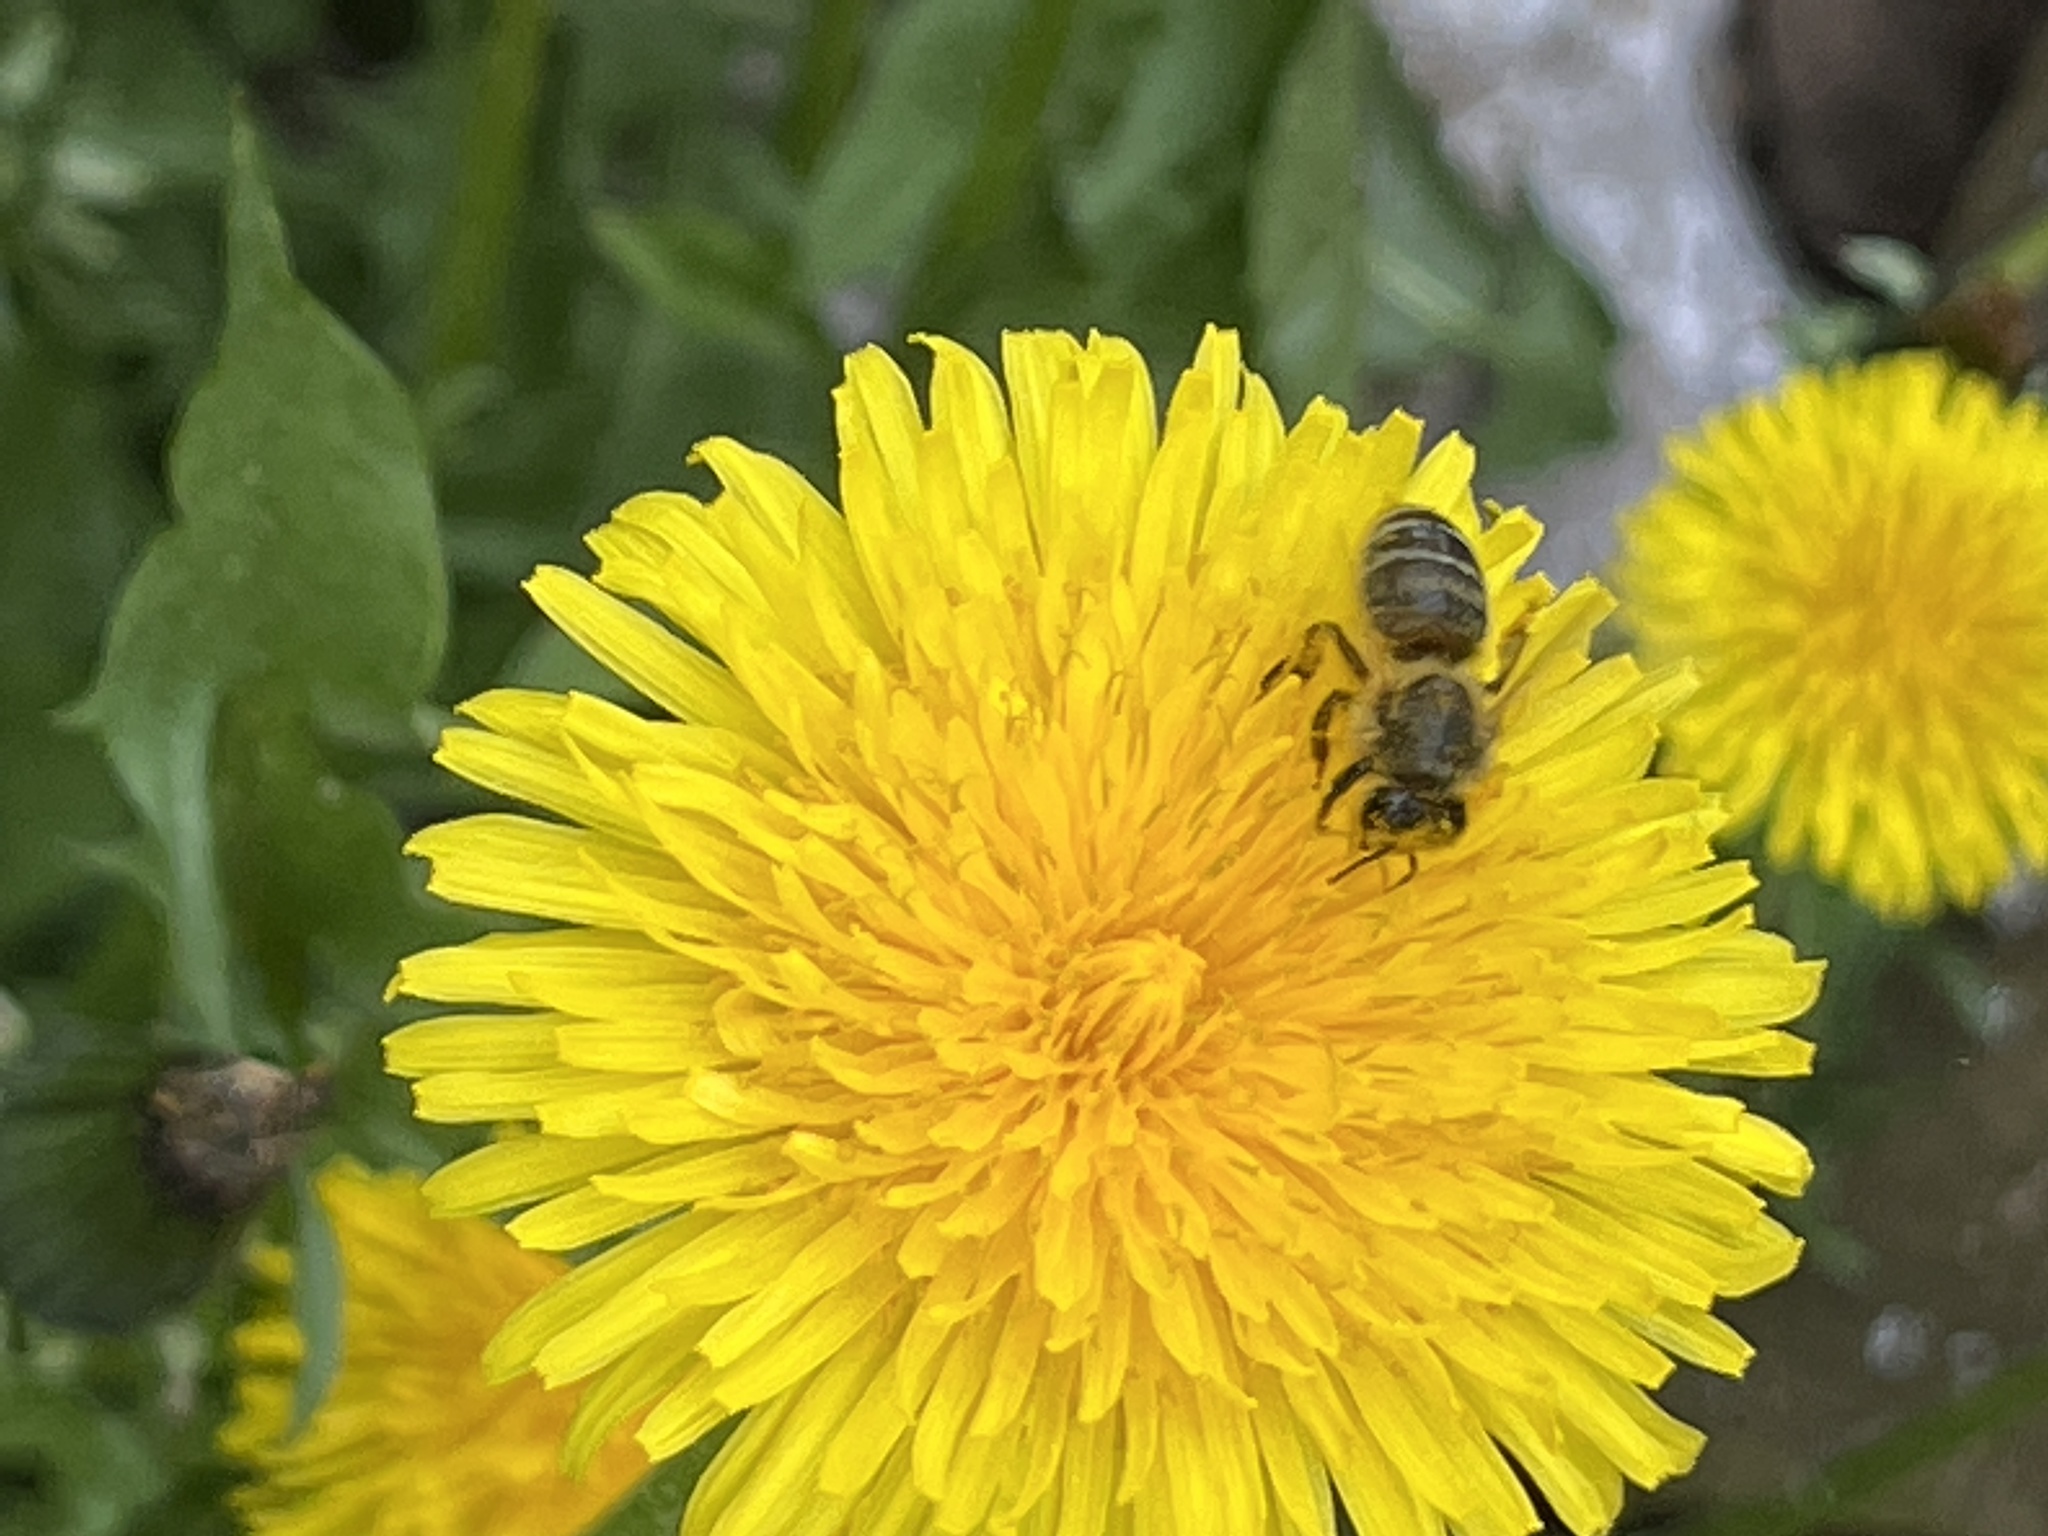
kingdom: Animalia
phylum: Arthropoda
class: Insecta
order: Hymenoptera
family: Apidae
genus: Apis
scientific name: Apis mellifera
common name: Honey bee
